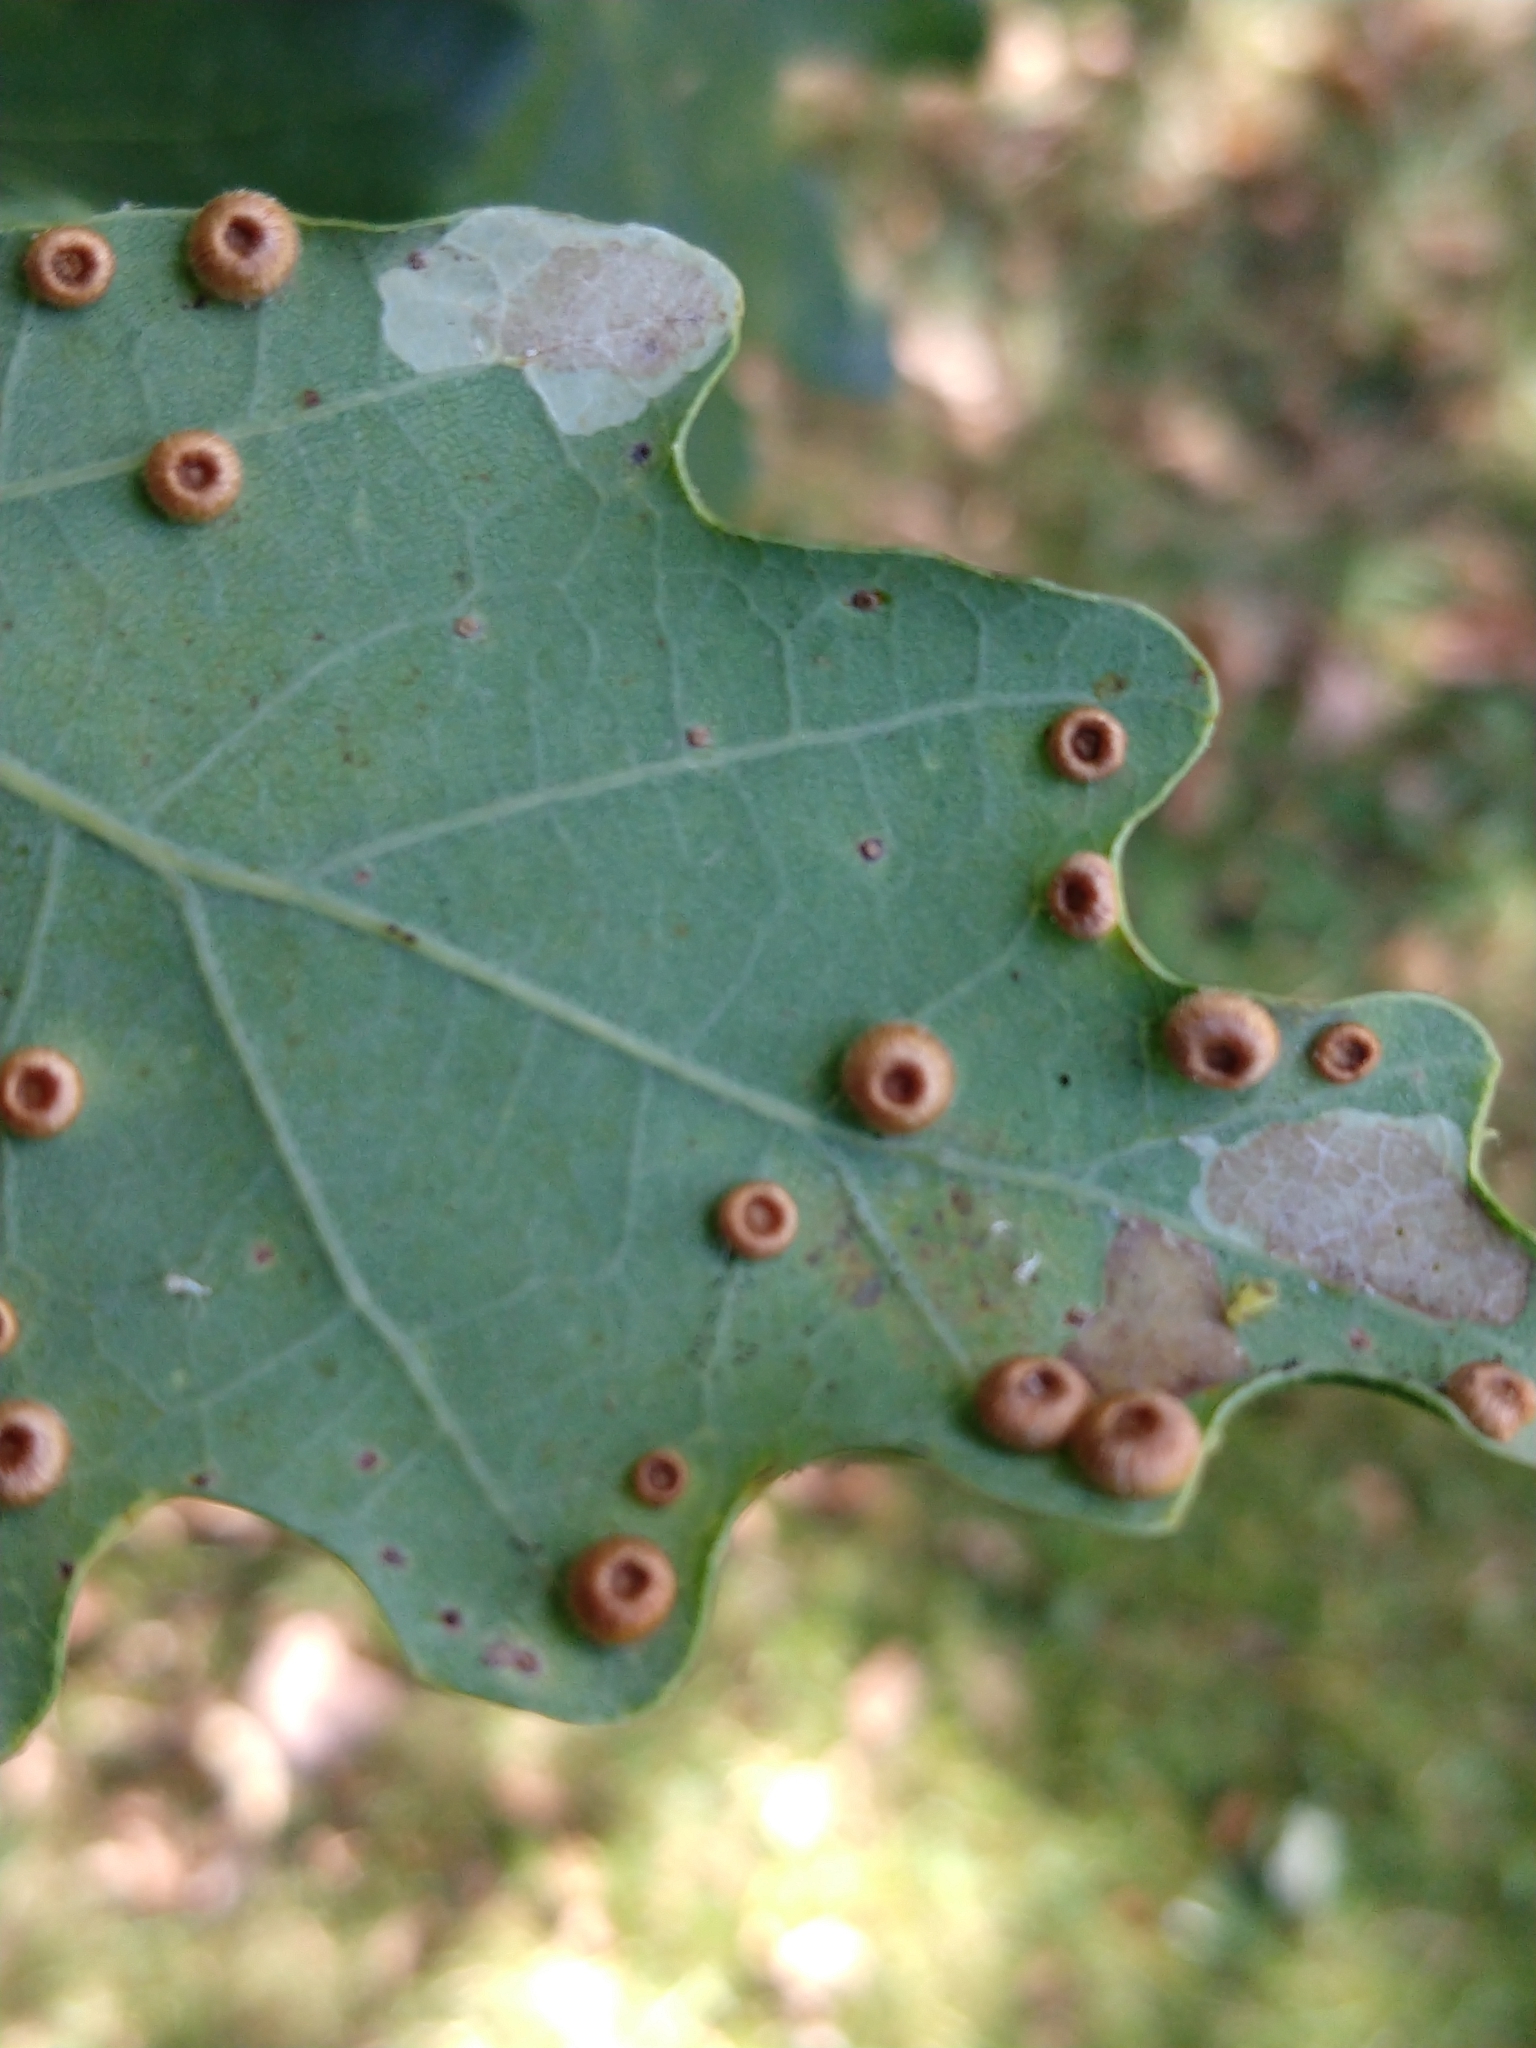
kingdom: Animalia
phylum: Arthropoda
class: Insecta
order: Hymenoptera
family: Cynipidae
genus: Neuroterus
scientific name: Neuroterus numismalis
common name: Silk-button spangle gall
